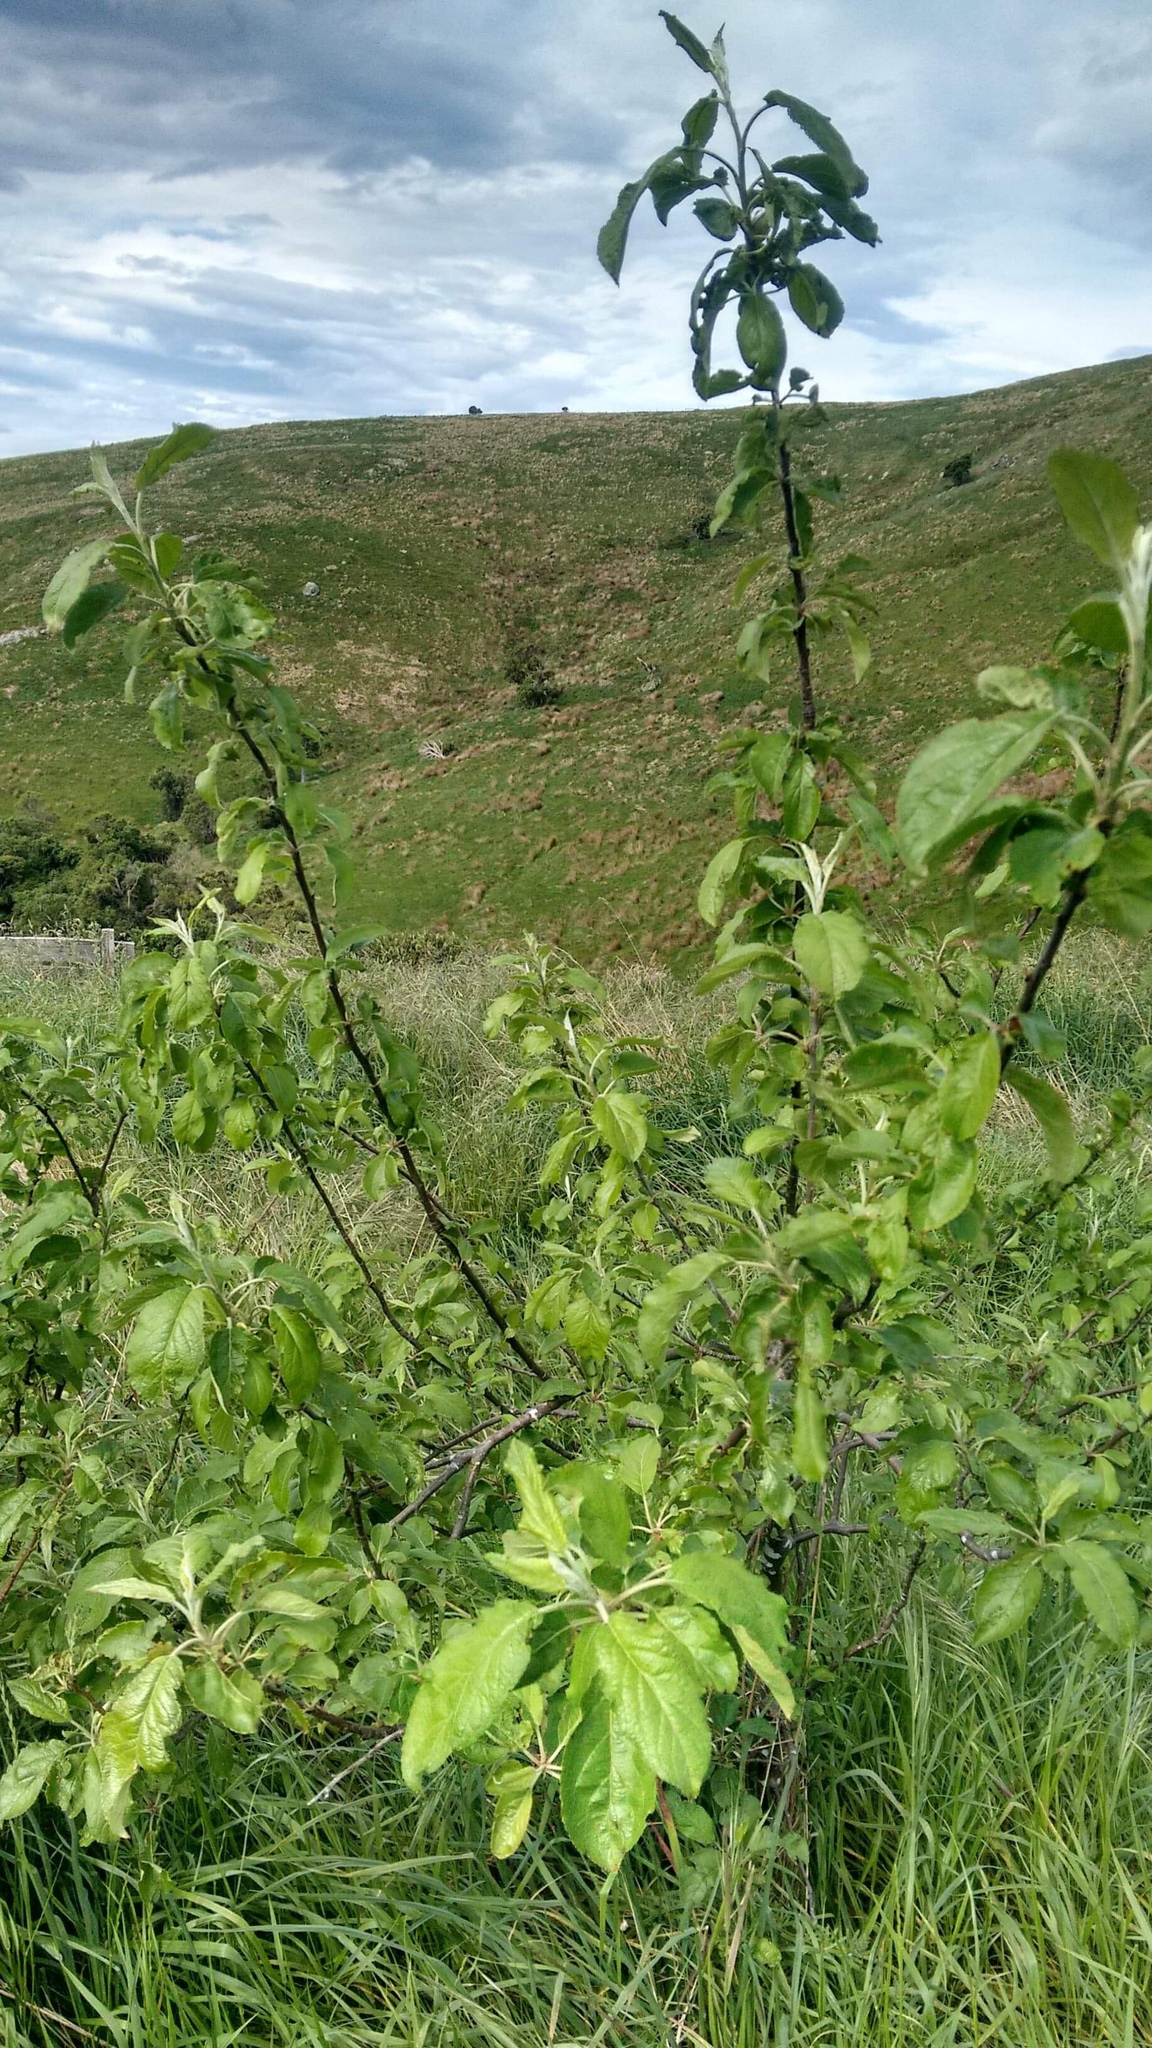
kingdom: Plantae
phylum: Tracheophyta
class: Magnoliopsida
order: Rosales
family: Rosaceae
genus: Malus
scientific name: Malus domestica
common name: Apple
